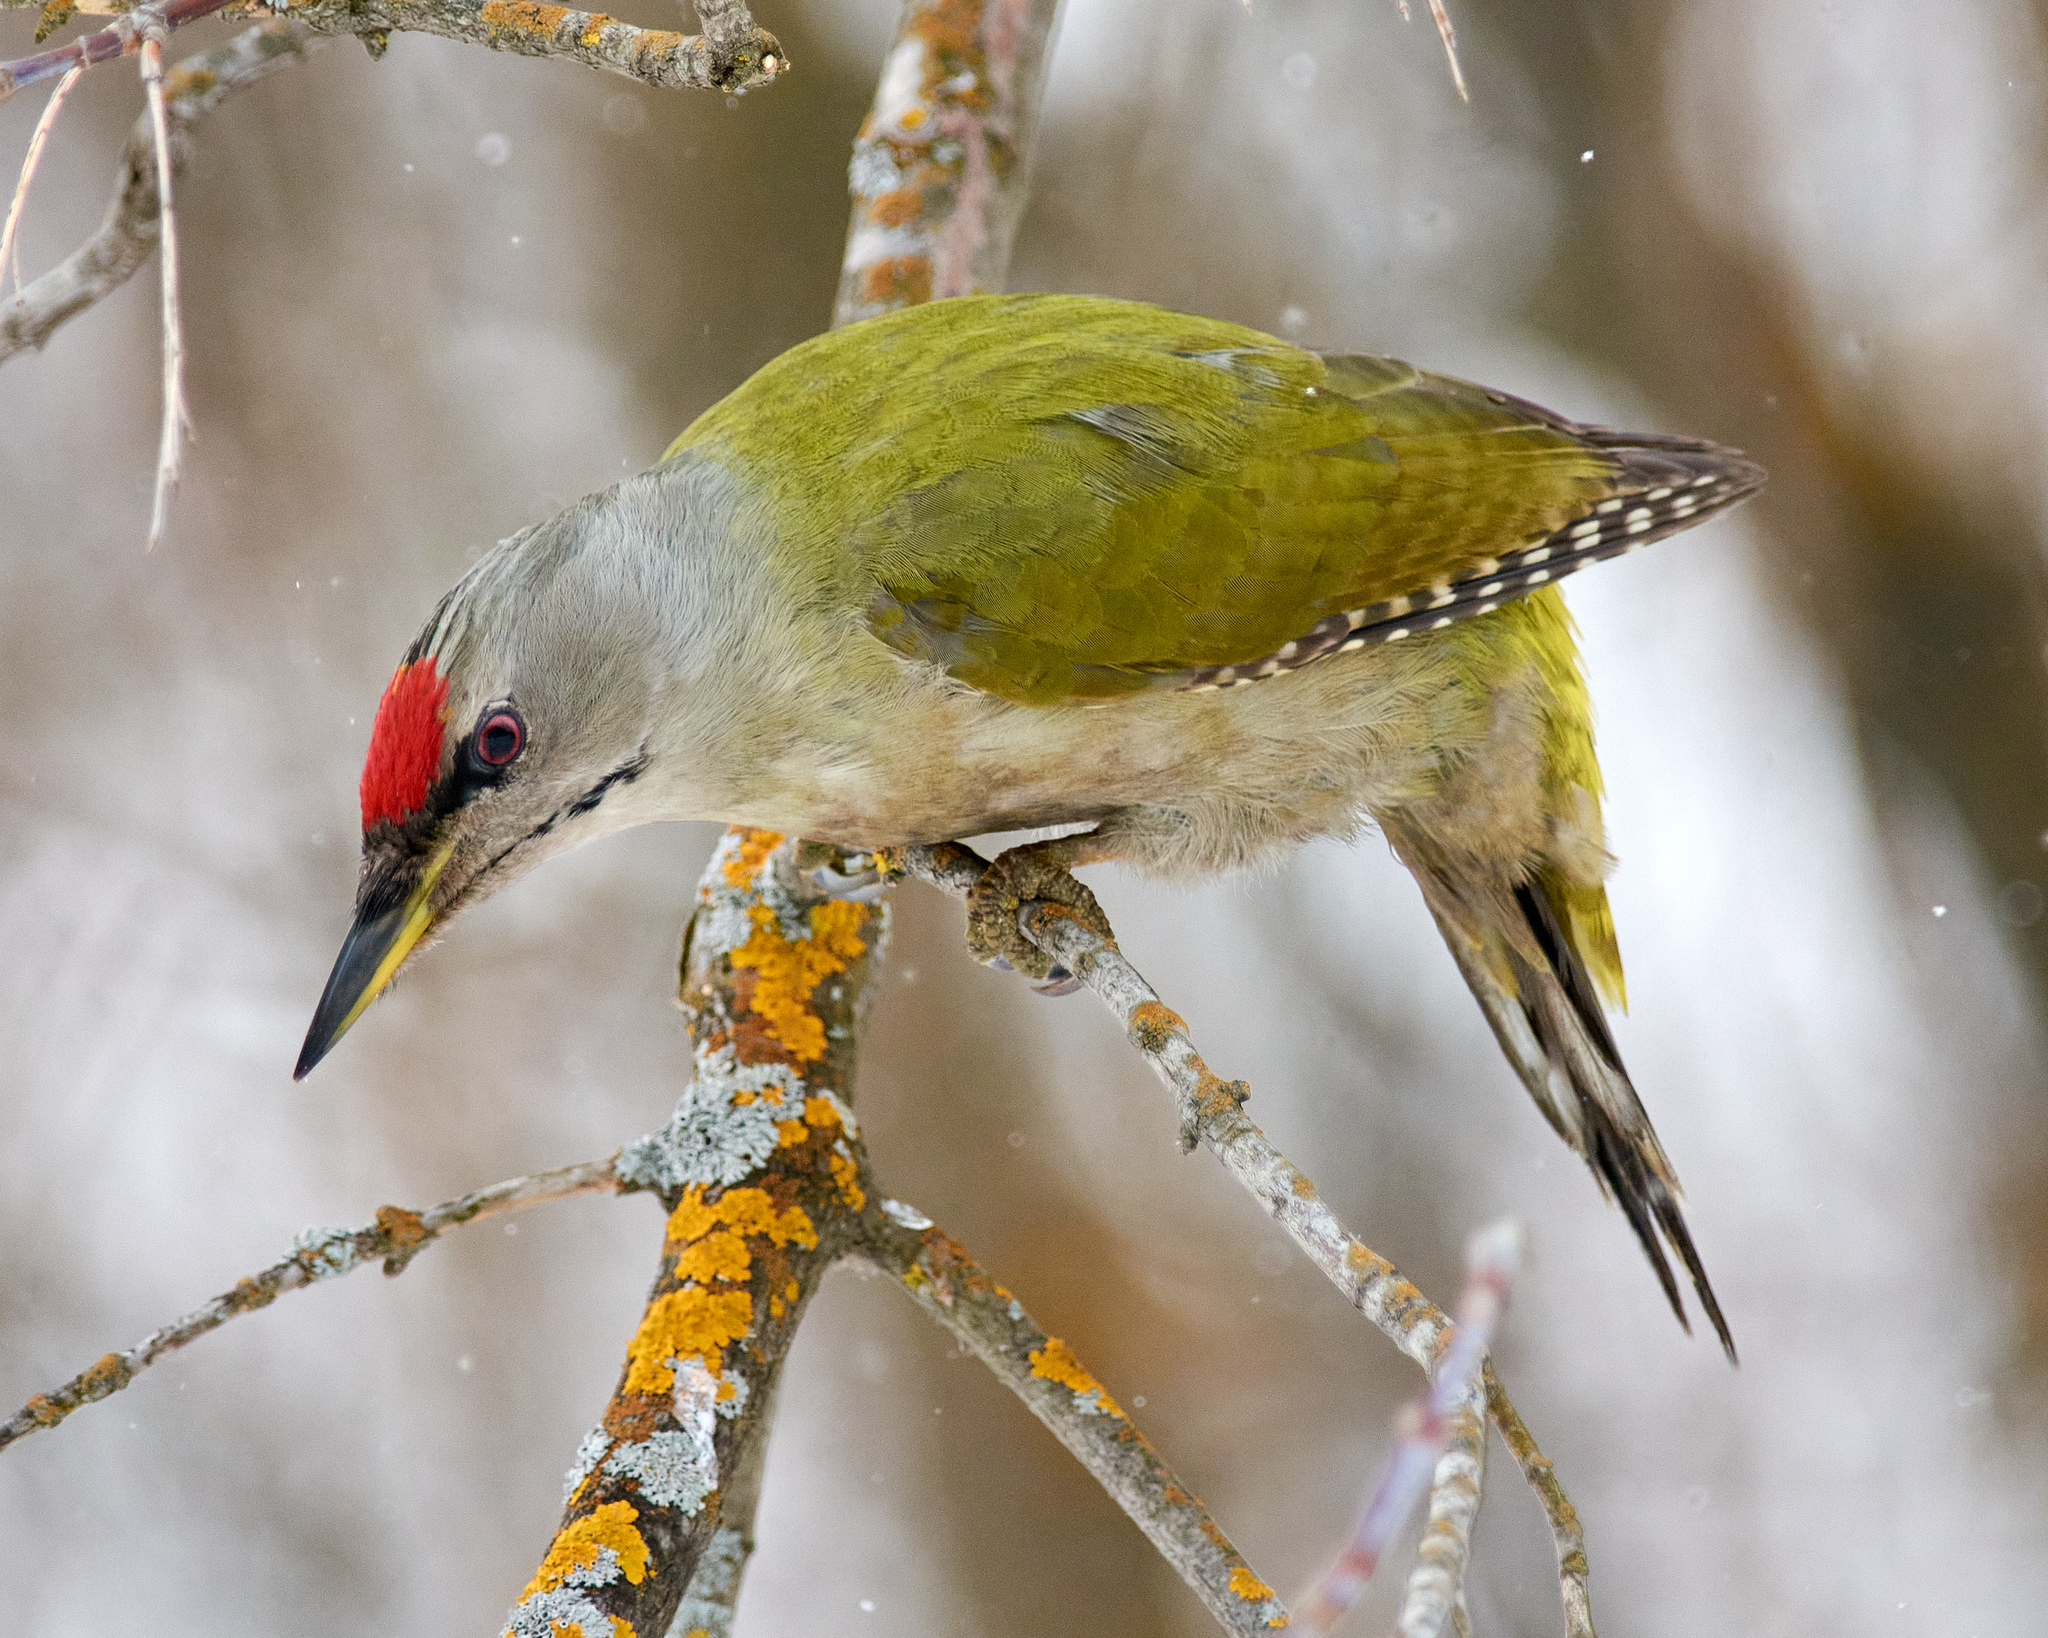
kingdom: Animalia
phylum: Chordata
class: Aves
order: Piciformes
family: Picidae
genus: Picus
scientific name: Picus canus
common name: Grey-headed woodpecker
